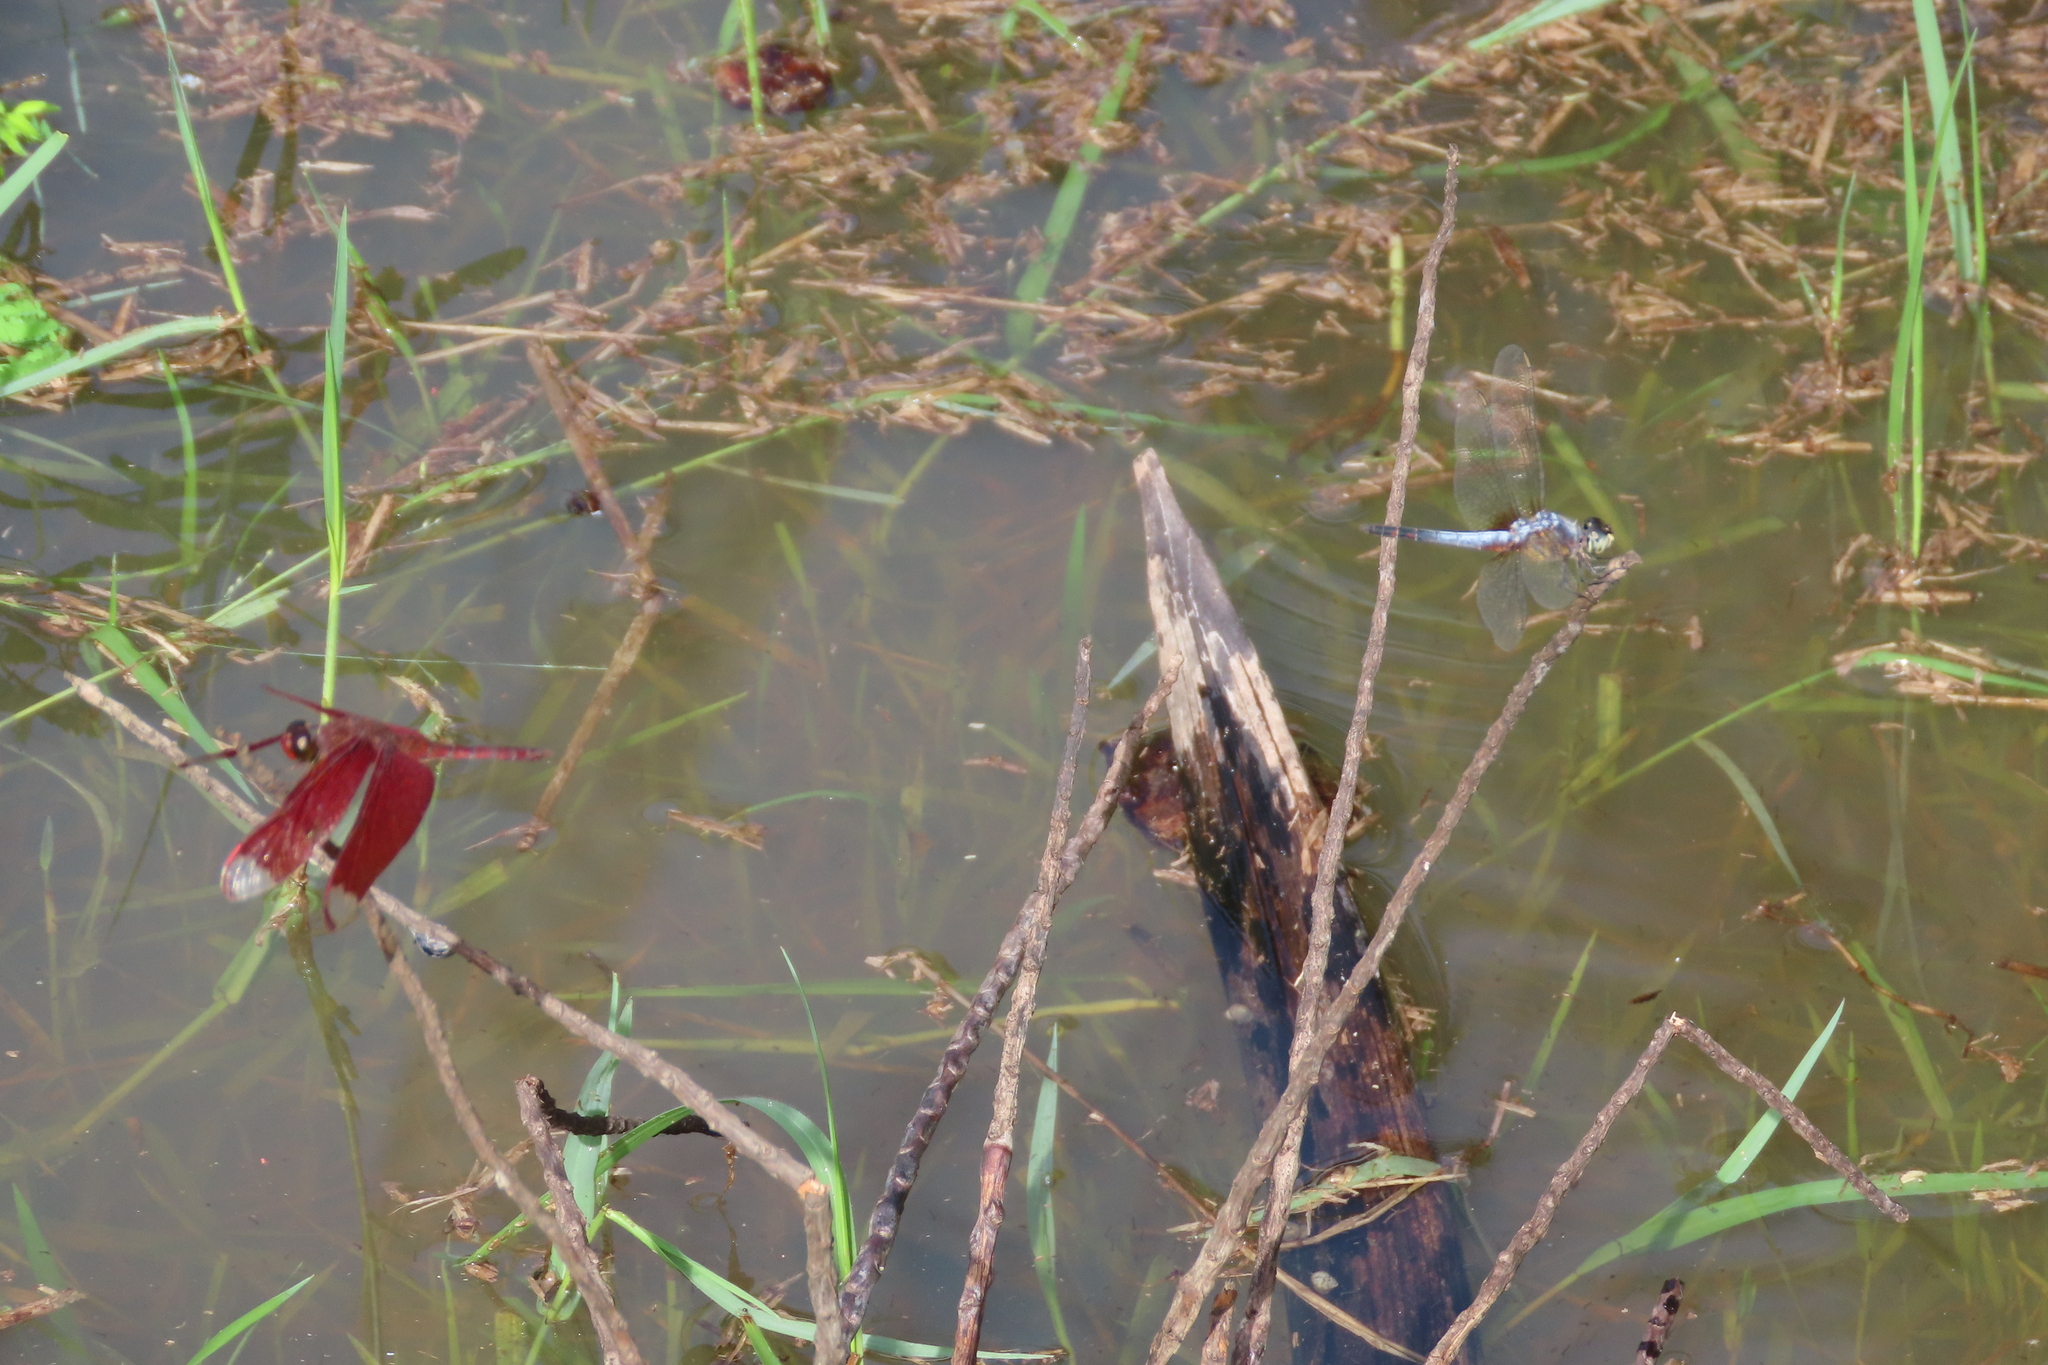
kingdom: Animalia
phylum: Arthropoda
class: Insecta
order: Odonata
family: Libellulidae
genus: Neurothemis
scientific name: Neurothemis fulvia
